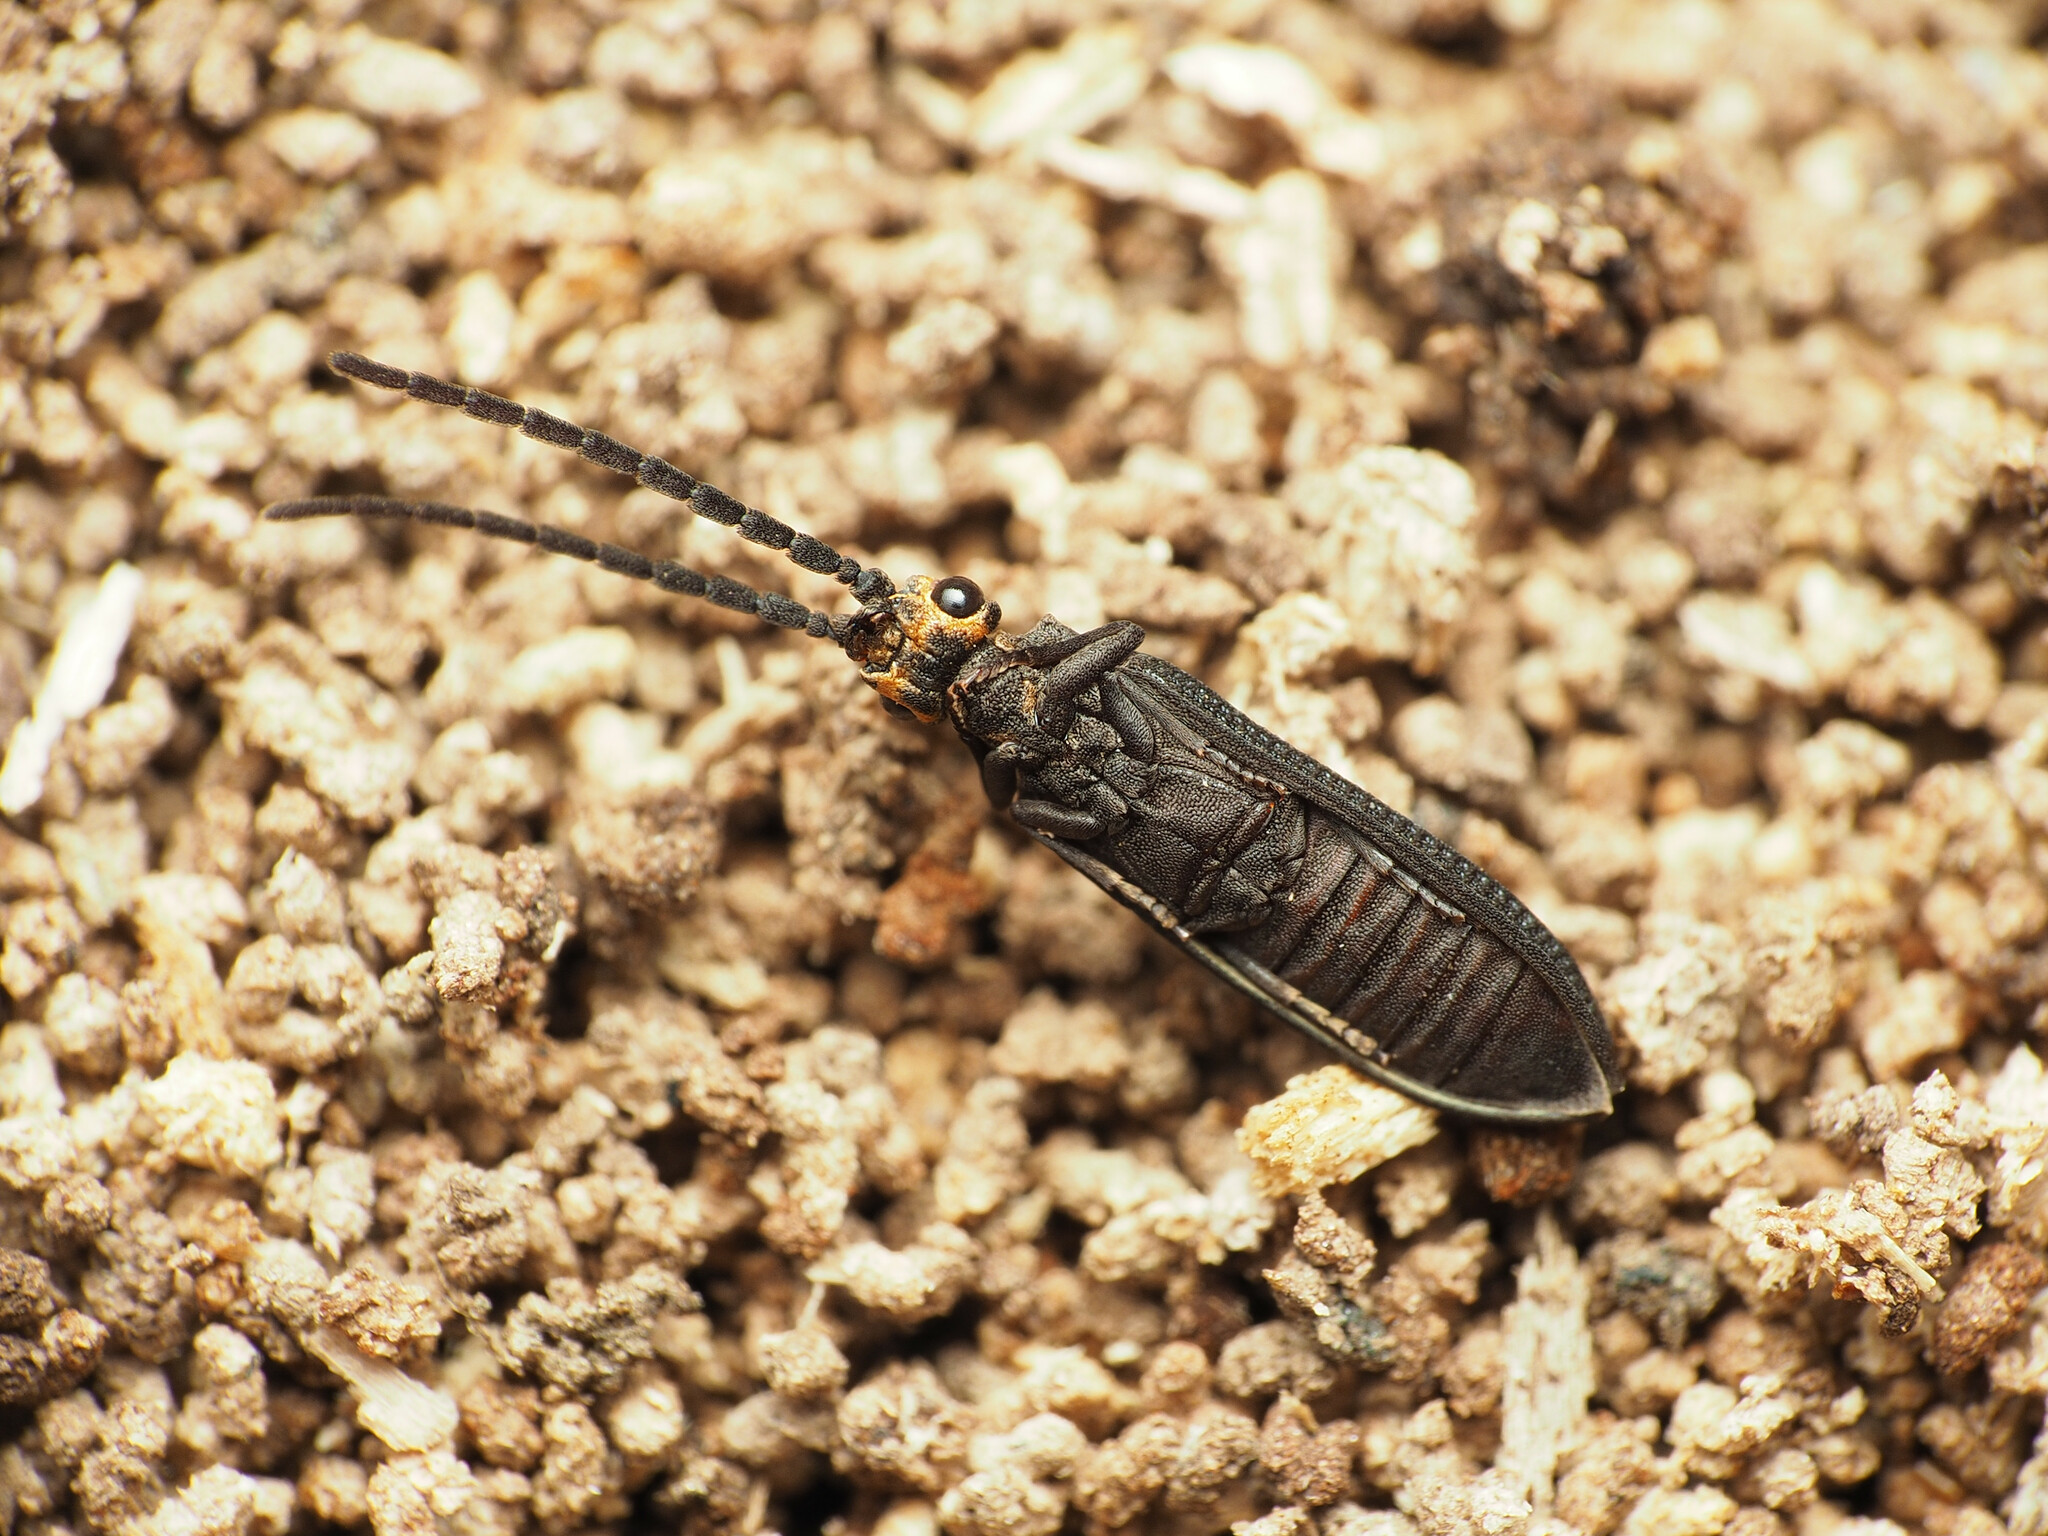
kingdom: Animalia
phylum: Arthropoda
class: Insecta
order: Coleoptera
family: Cupedidae
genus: Cupes
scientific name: Cupes capitata
